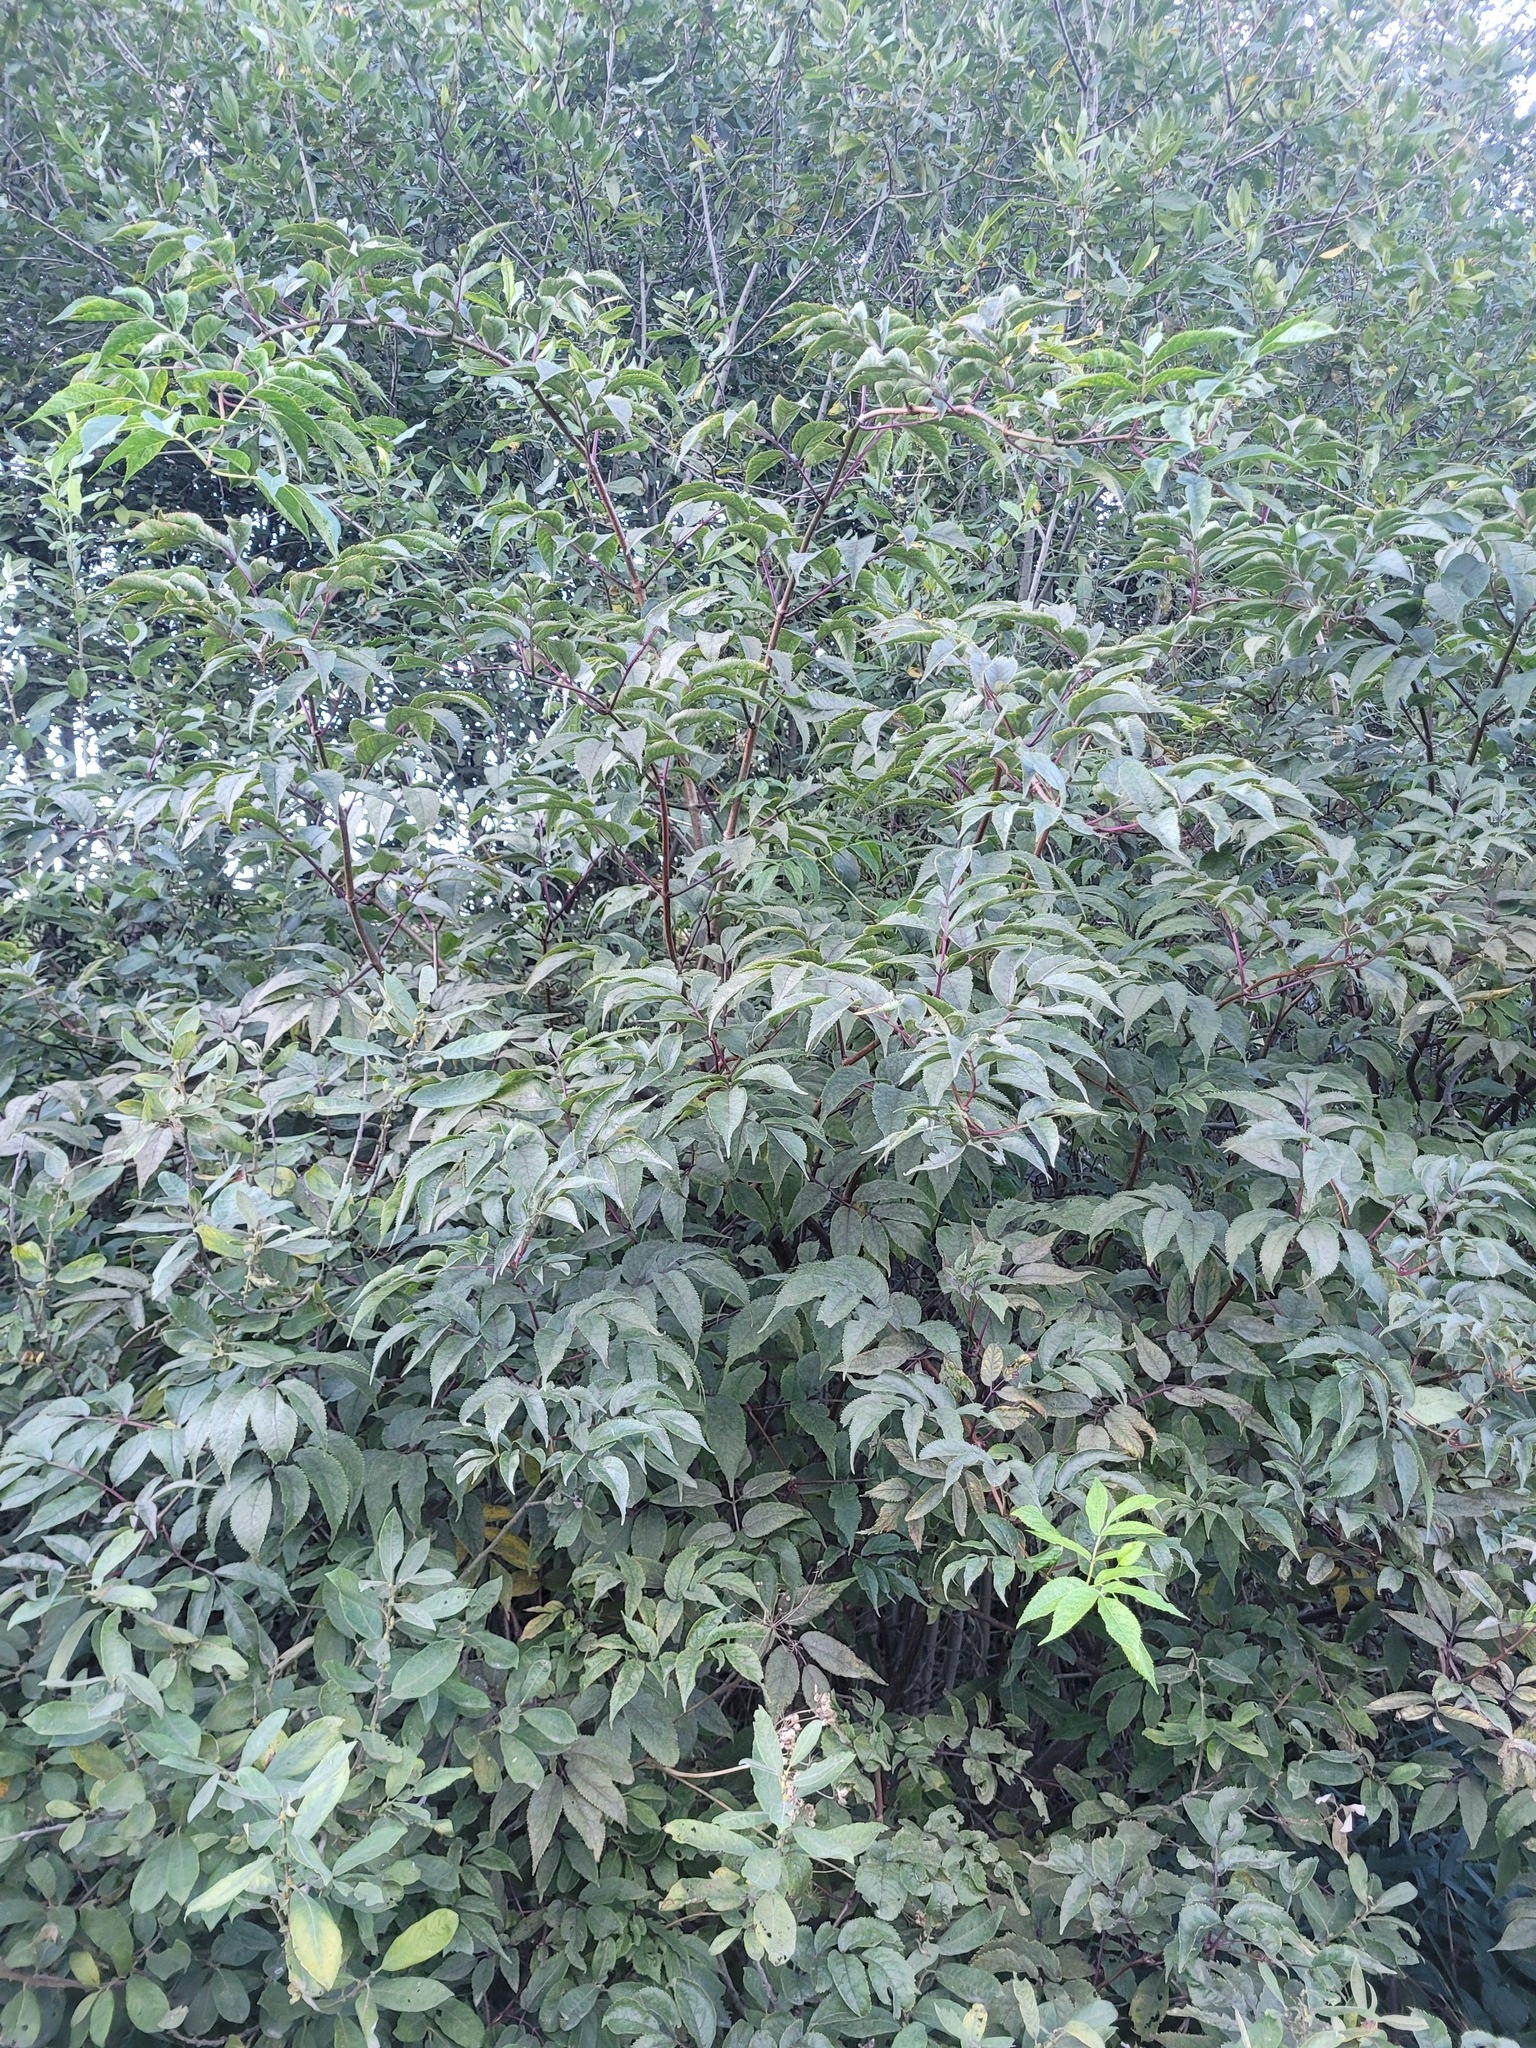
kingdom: Plantae
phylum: Tracheophyta
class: Magnoliopsida
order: Dipsacales
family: Viburnaceae
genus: Sambucus
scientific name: Sambucus racemosa
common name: Red-berried elder
